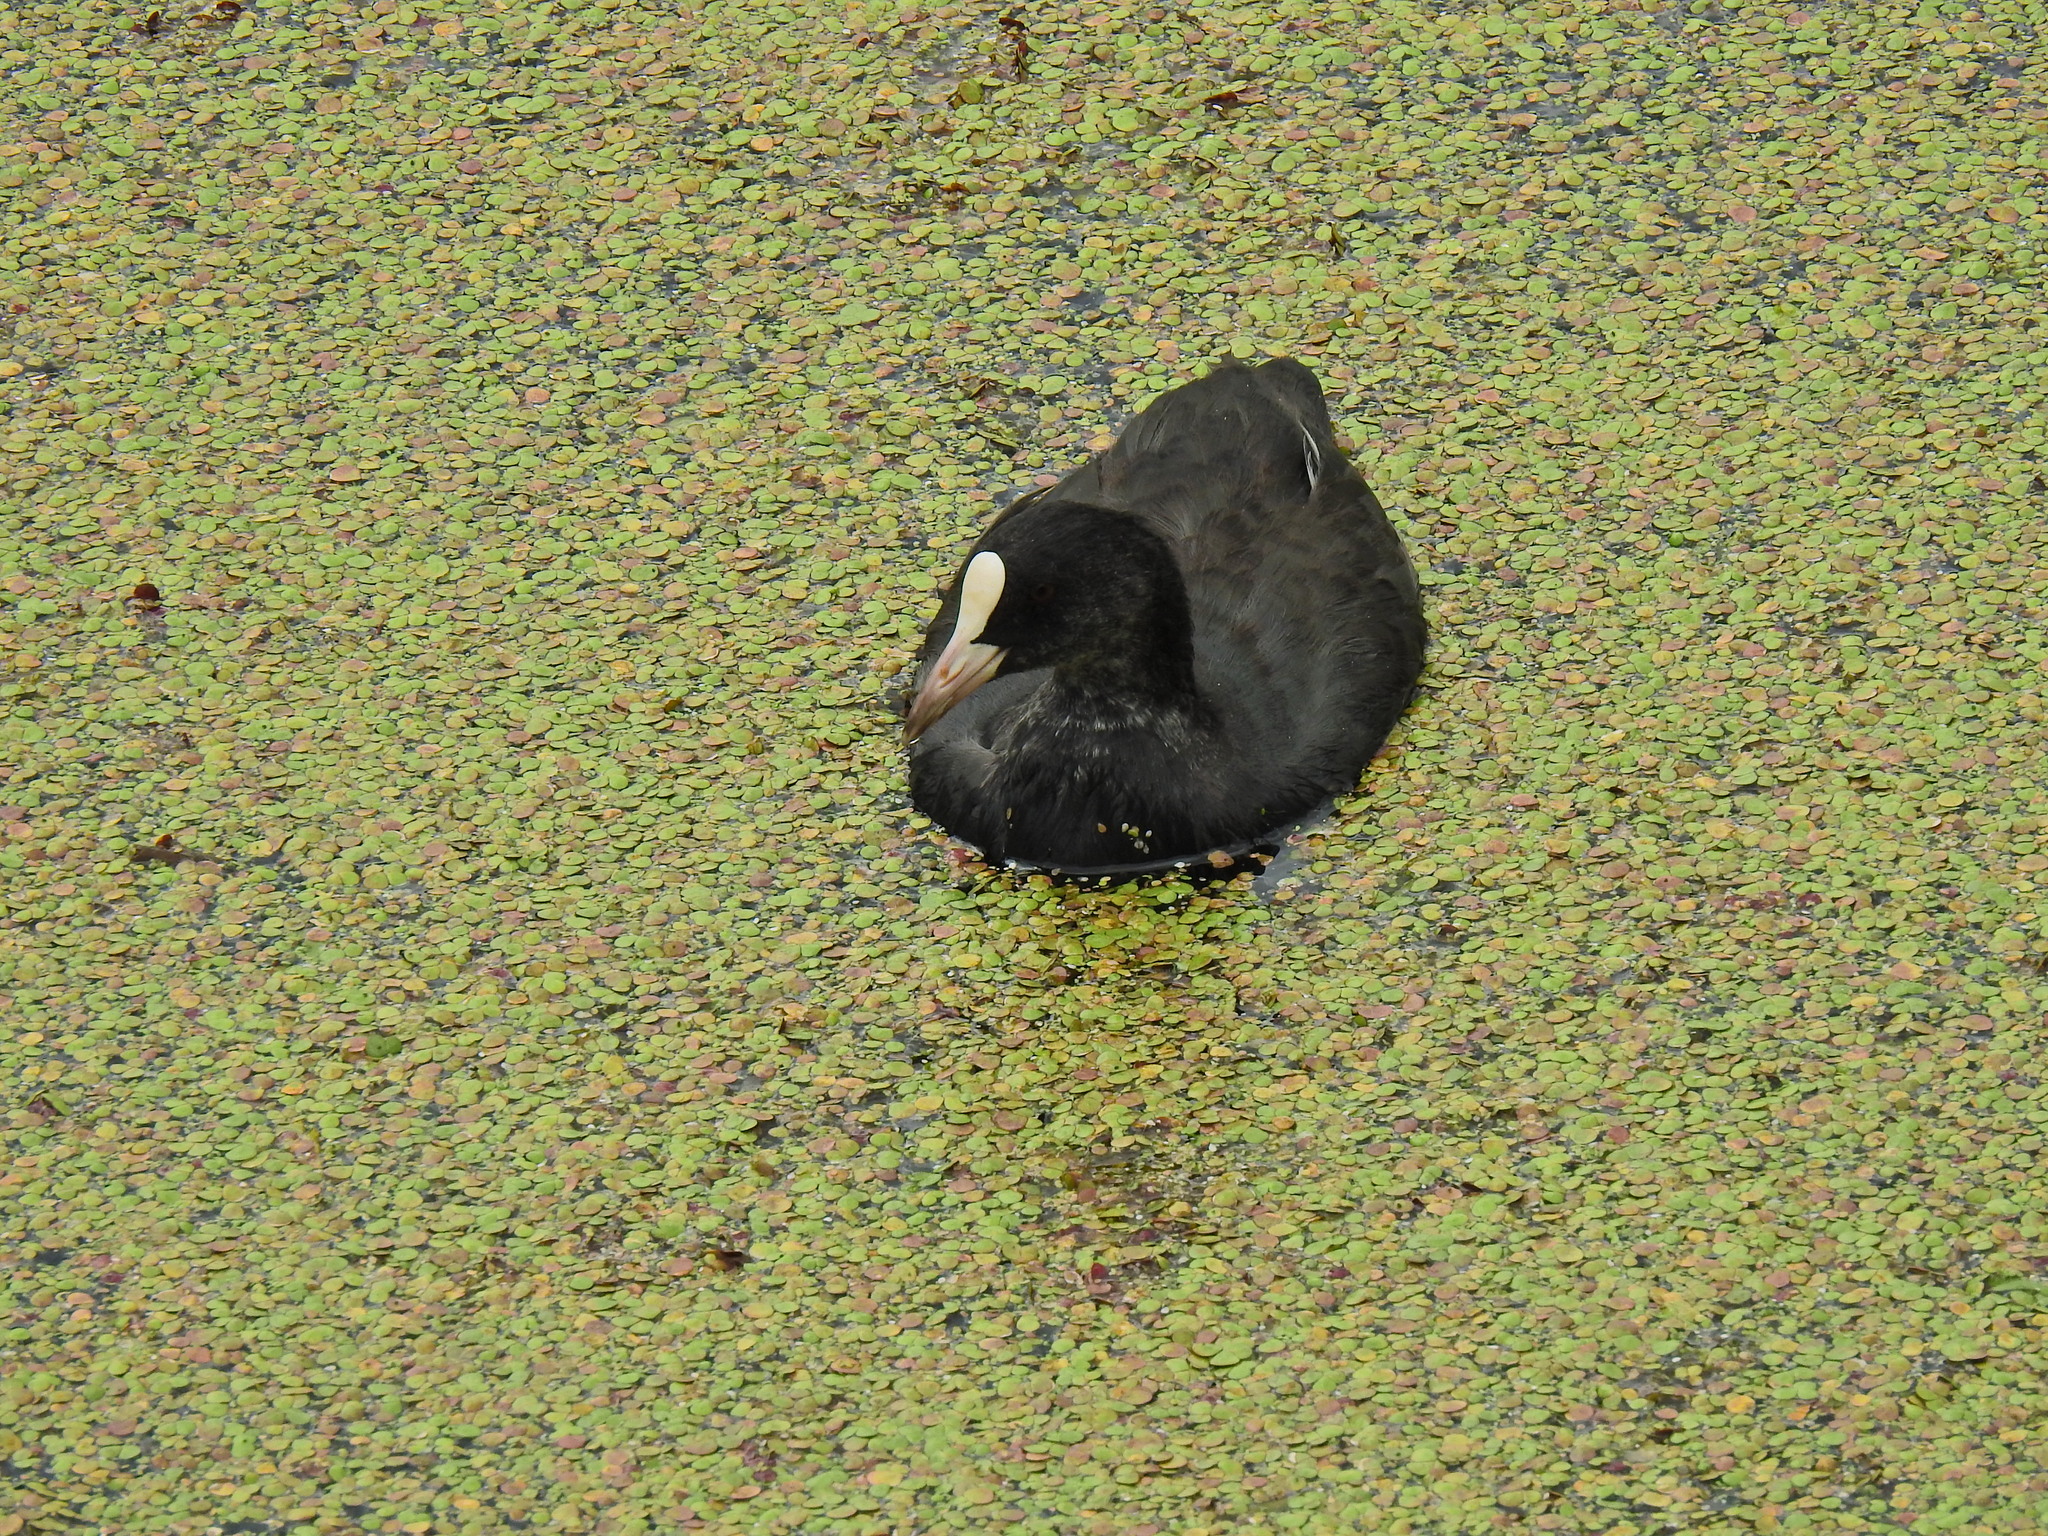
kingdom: Animalia
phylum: Chordata
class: Aves
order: Gruiformes
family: Rallidae
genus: Fulica
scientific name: Fulica atra
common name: Eurasian coot
